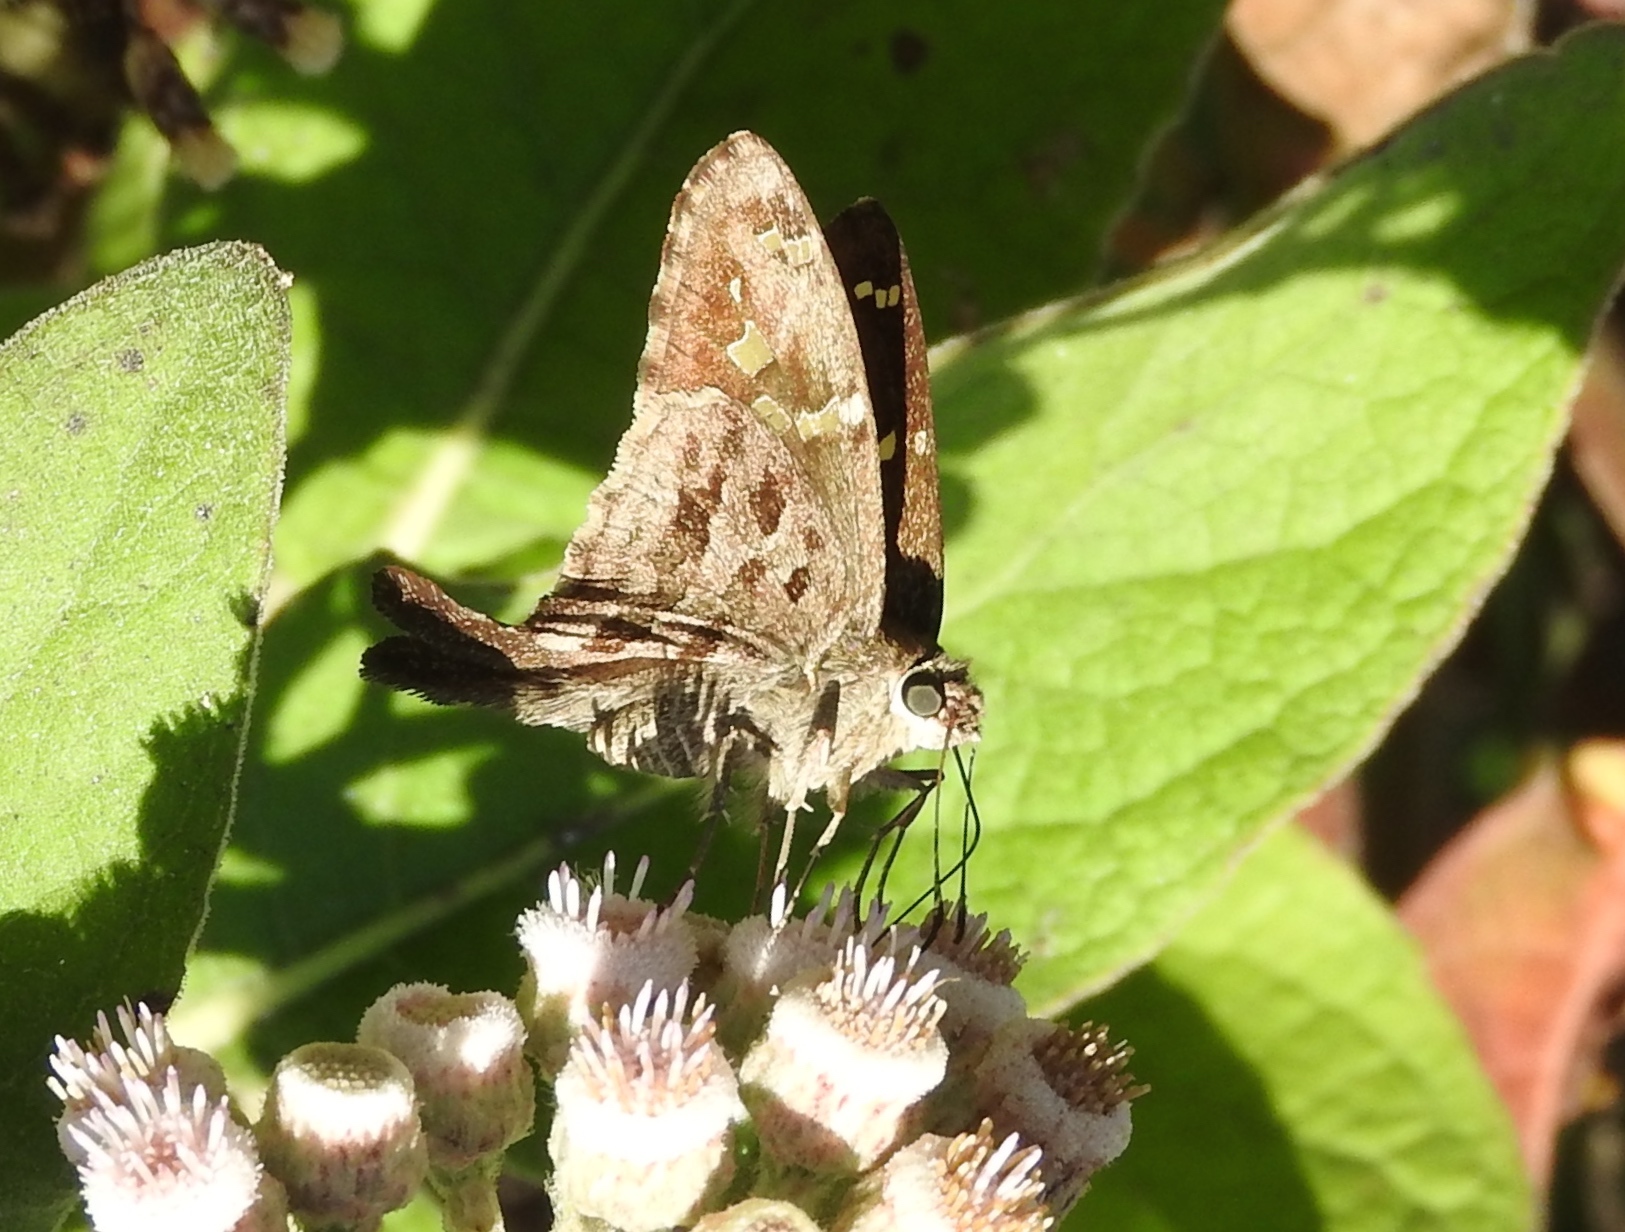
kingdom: Animalia
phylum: Arthropoda
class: Insecta
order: Lepidoptera
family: Hesperiidae
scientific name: Hesperiidae
